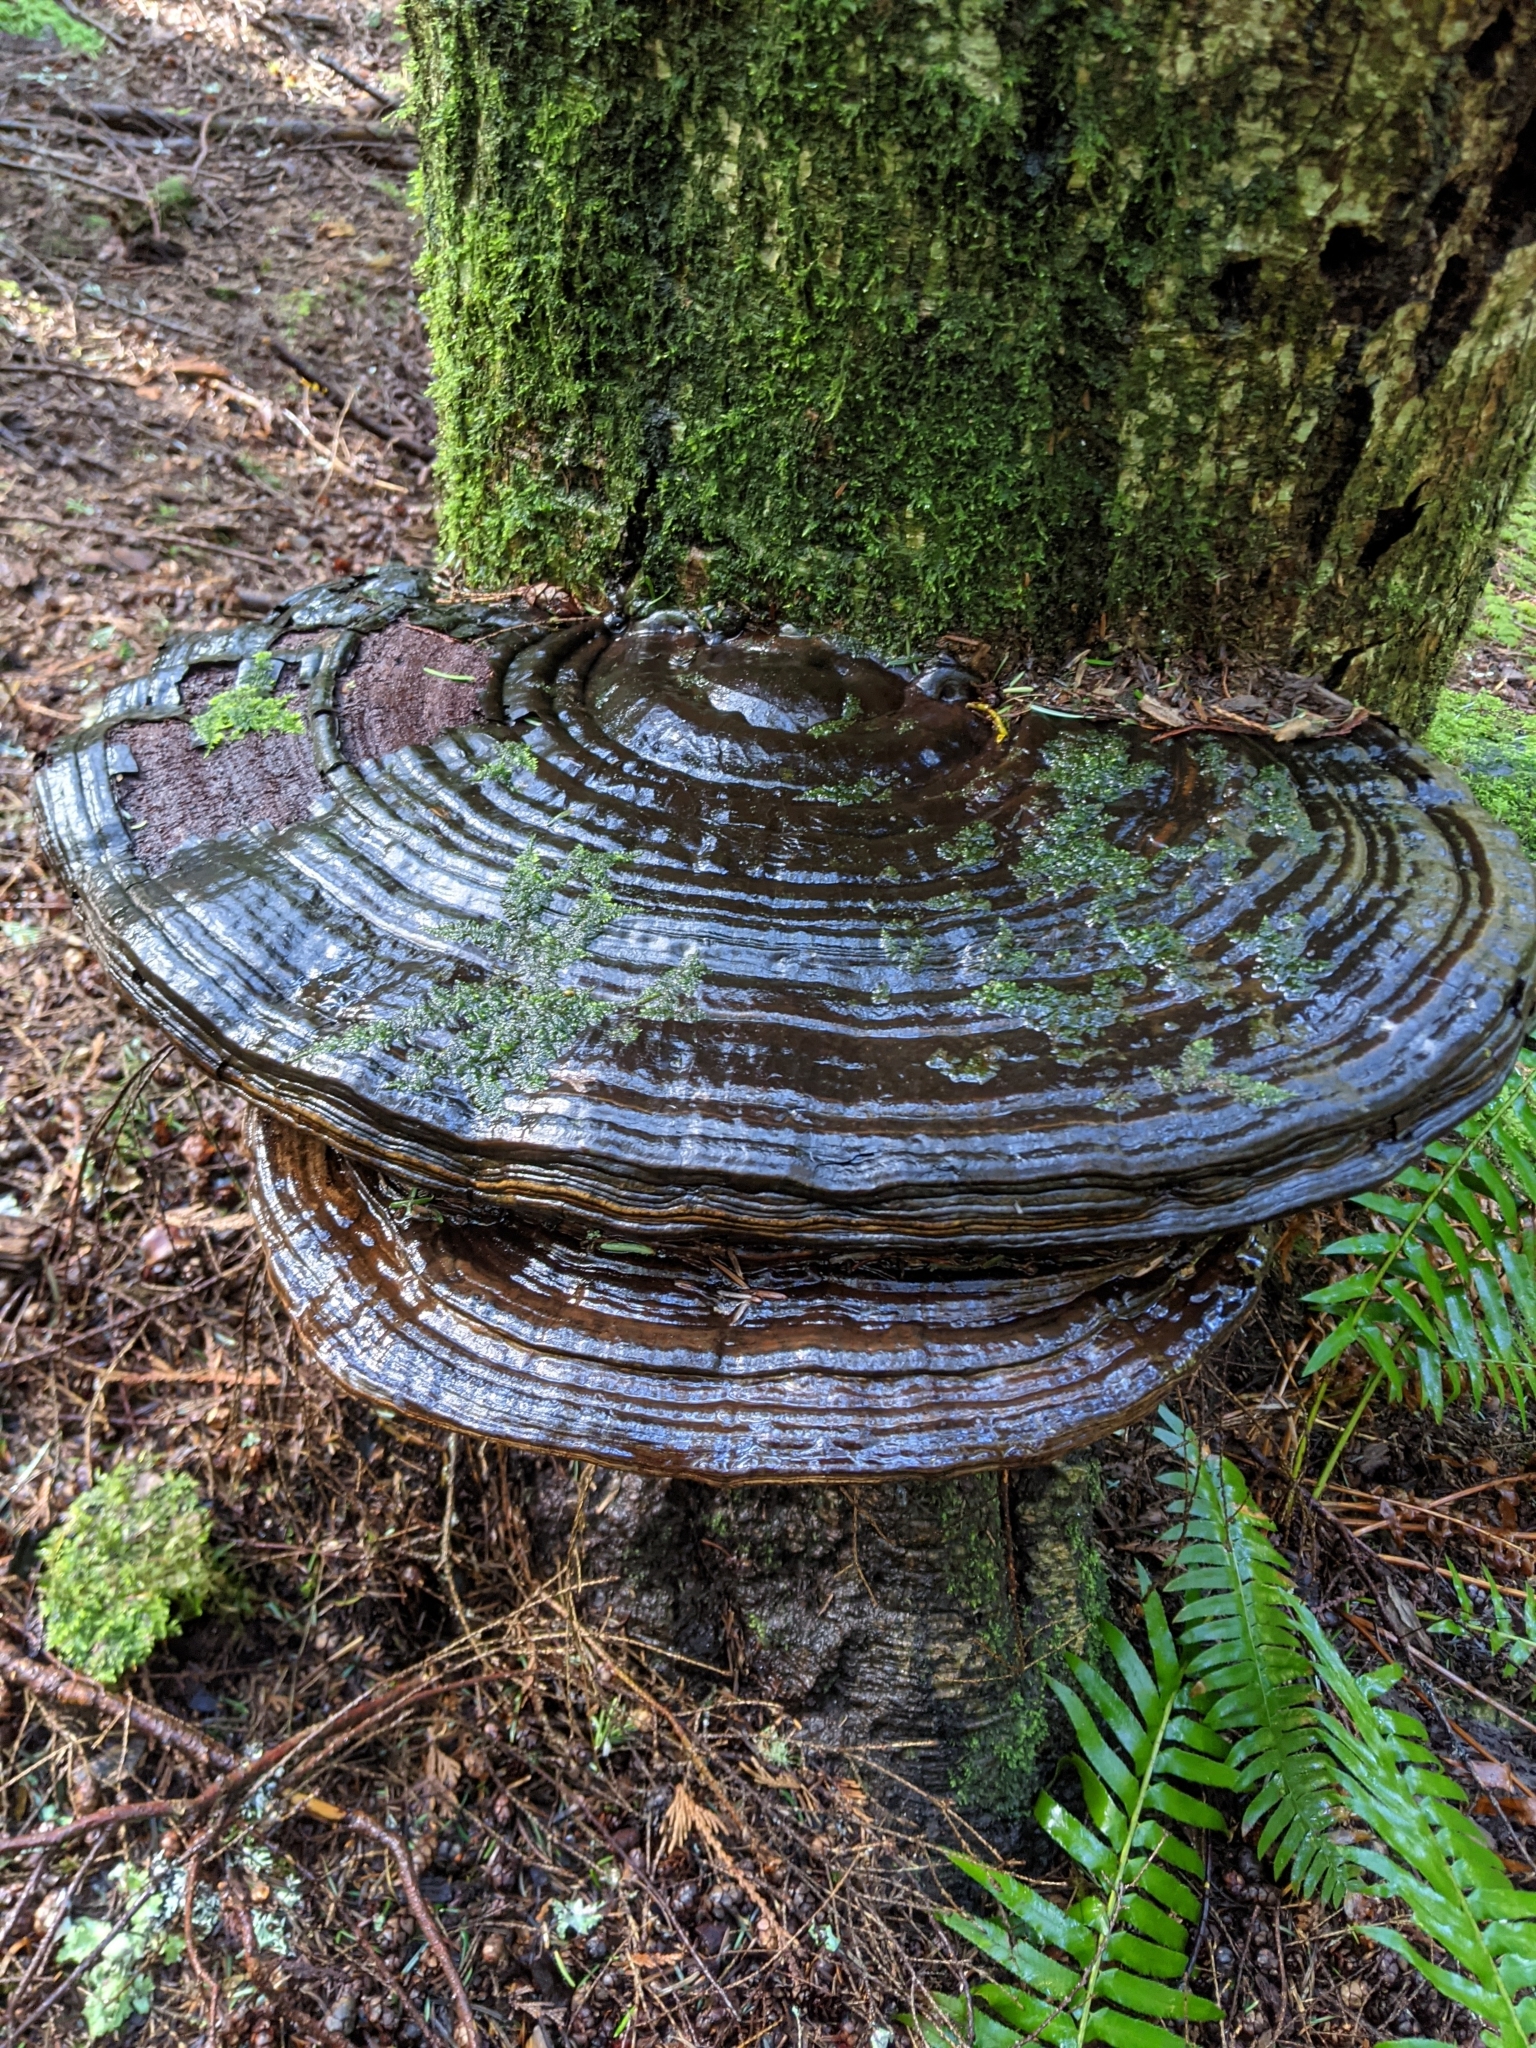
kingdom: Fungi
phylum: Basidiomycota
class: Agaricomycetes
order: Polyporales
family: Polyporaceae
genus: Ganoderma
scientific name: Ganoderma applanatum
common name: Artist's bracket
